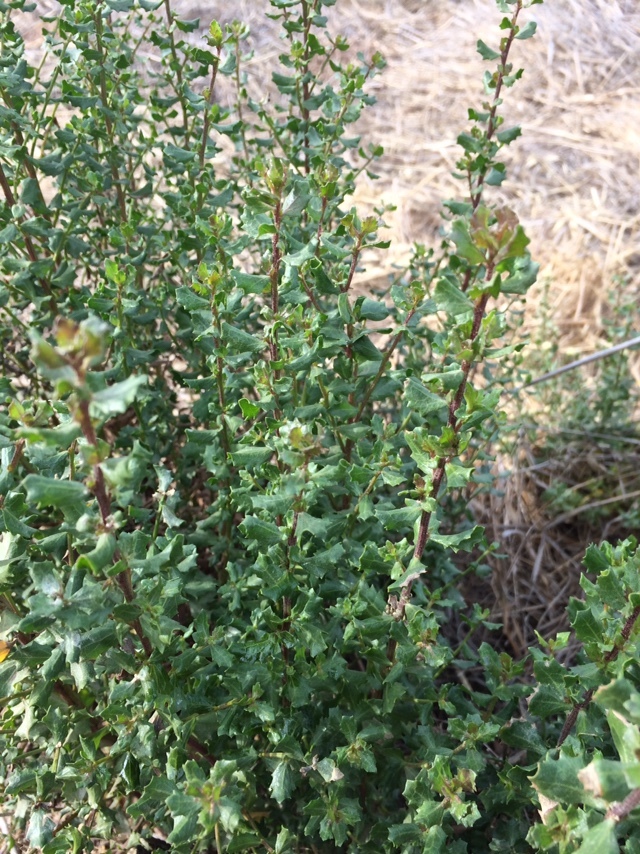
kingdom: Plantae
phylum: Tracheophyta
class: Magnoliopsida
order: Asterales
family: Asteraceae
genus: Baccharis
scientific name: Baccharis pilularis
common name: Coyotebrush
